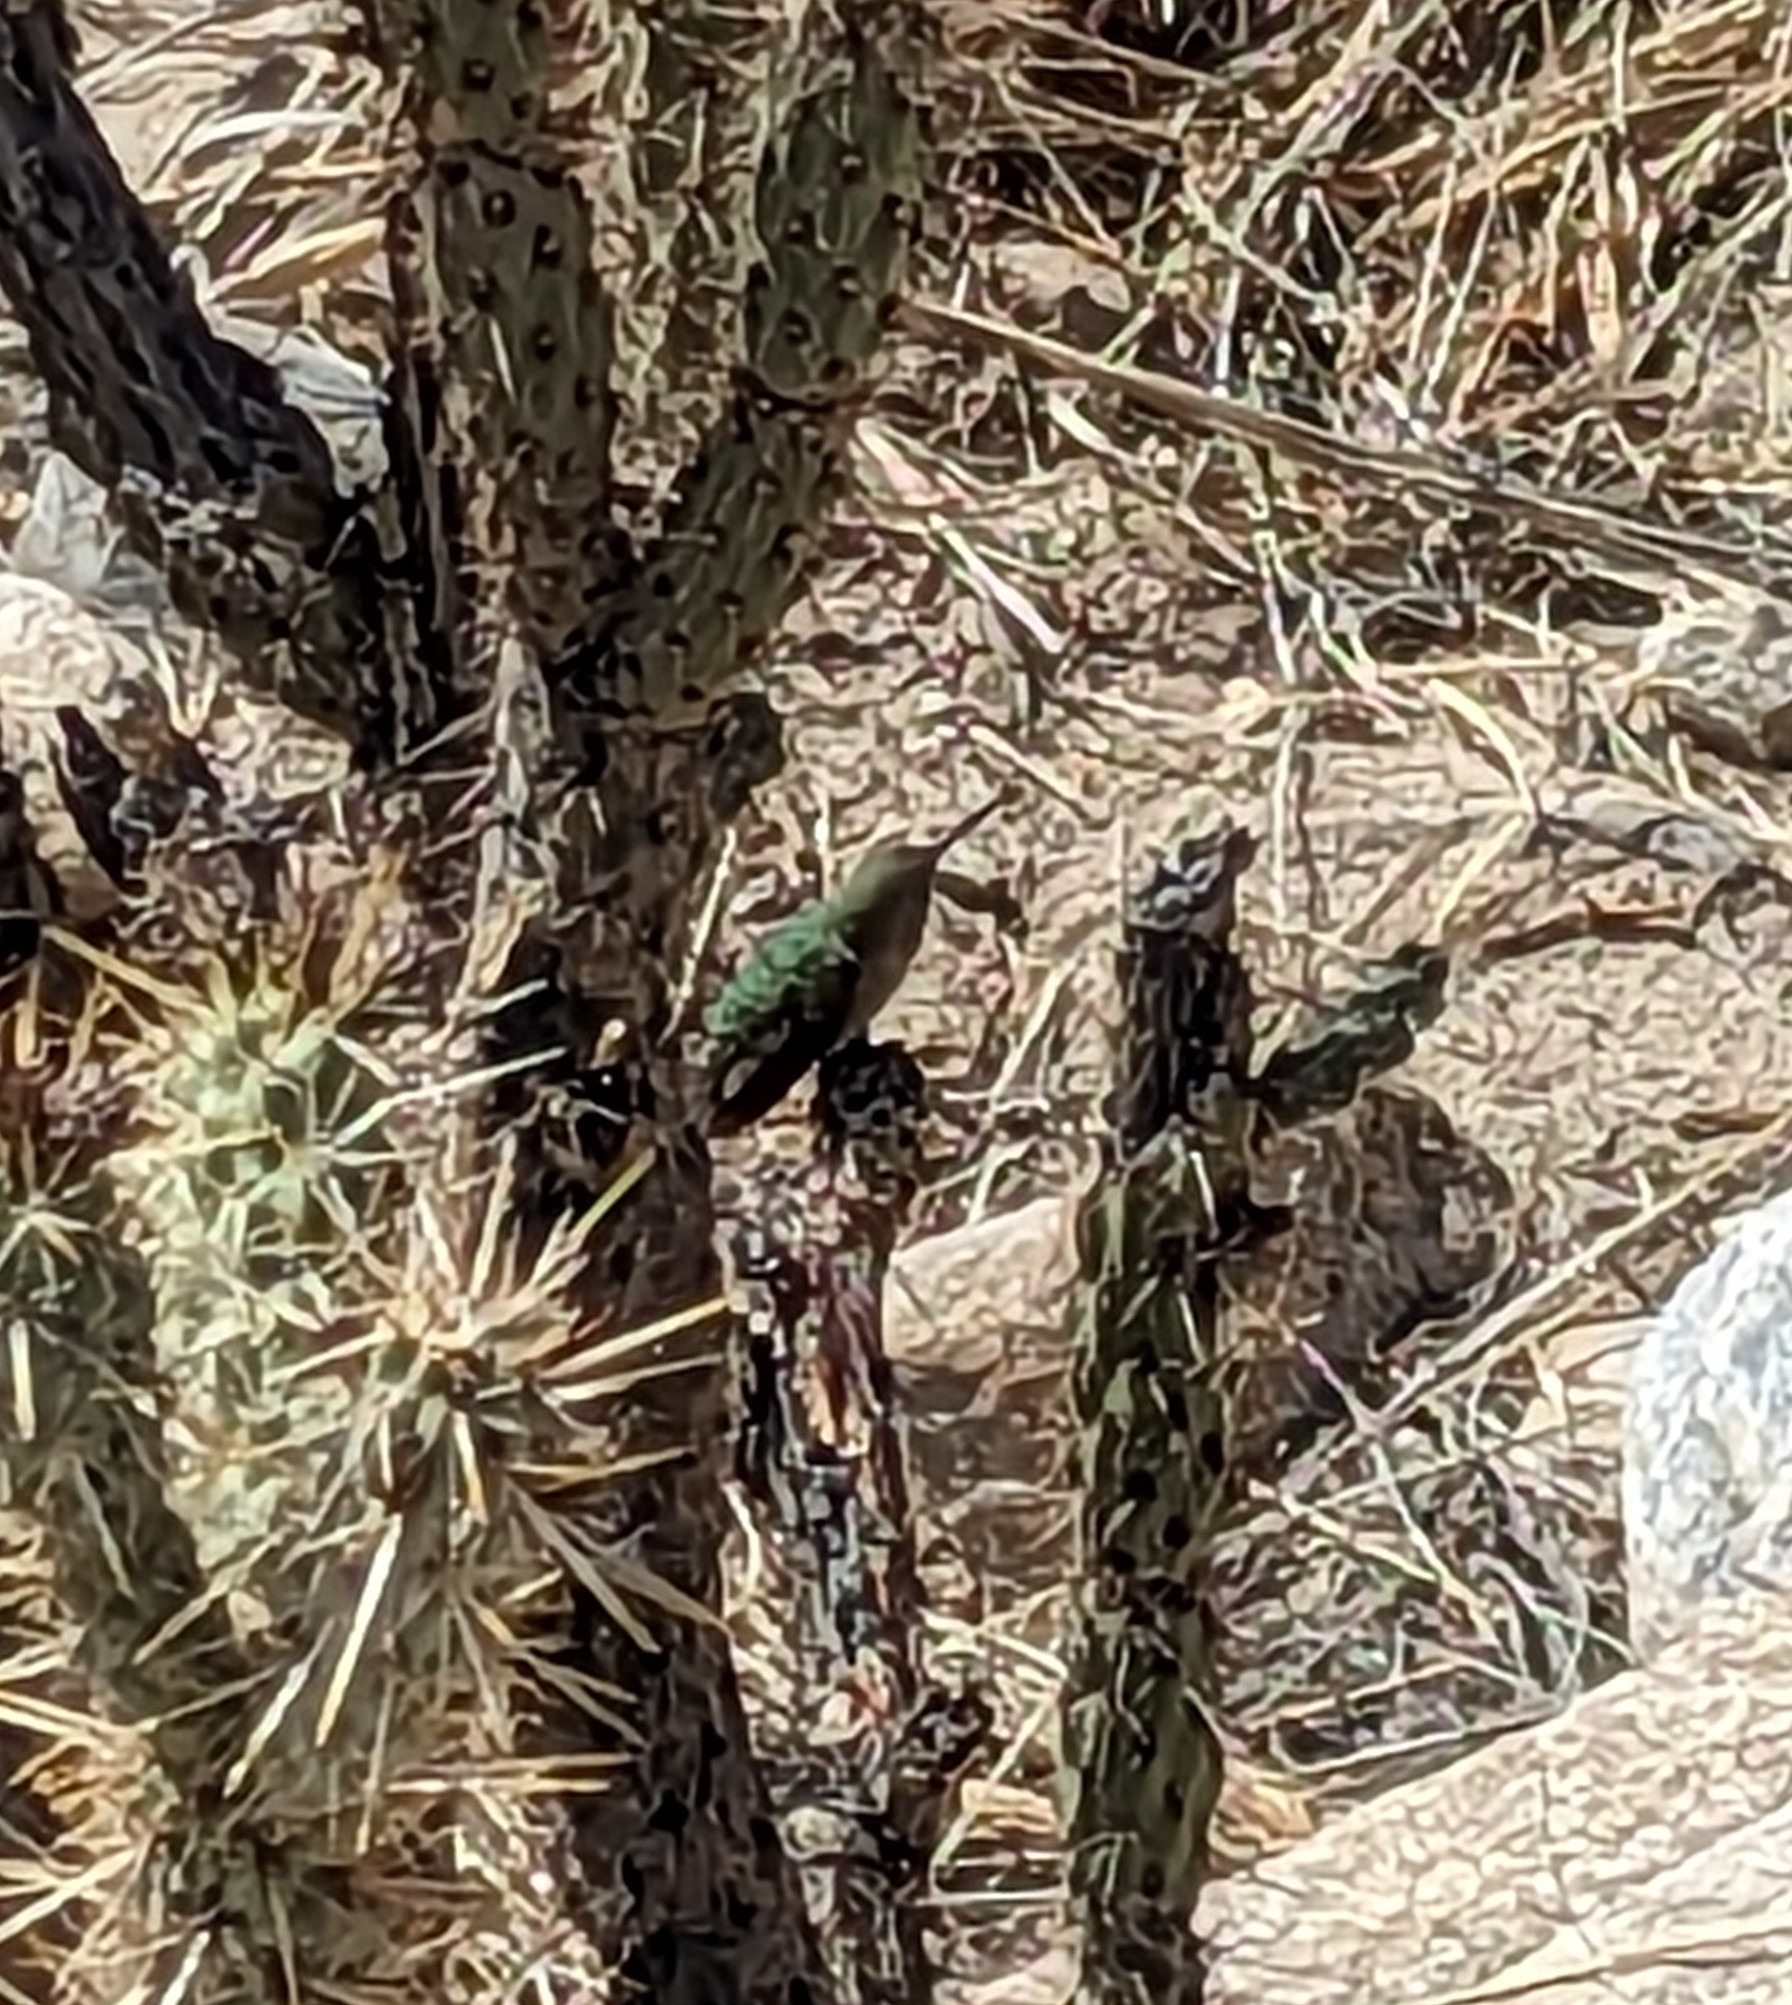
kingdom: Animalia
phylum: Chordata
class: Aves
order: Apodiformes
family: Trochilidae
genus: Calypte
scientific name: Calypte costae
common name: Costa's hummingbird
